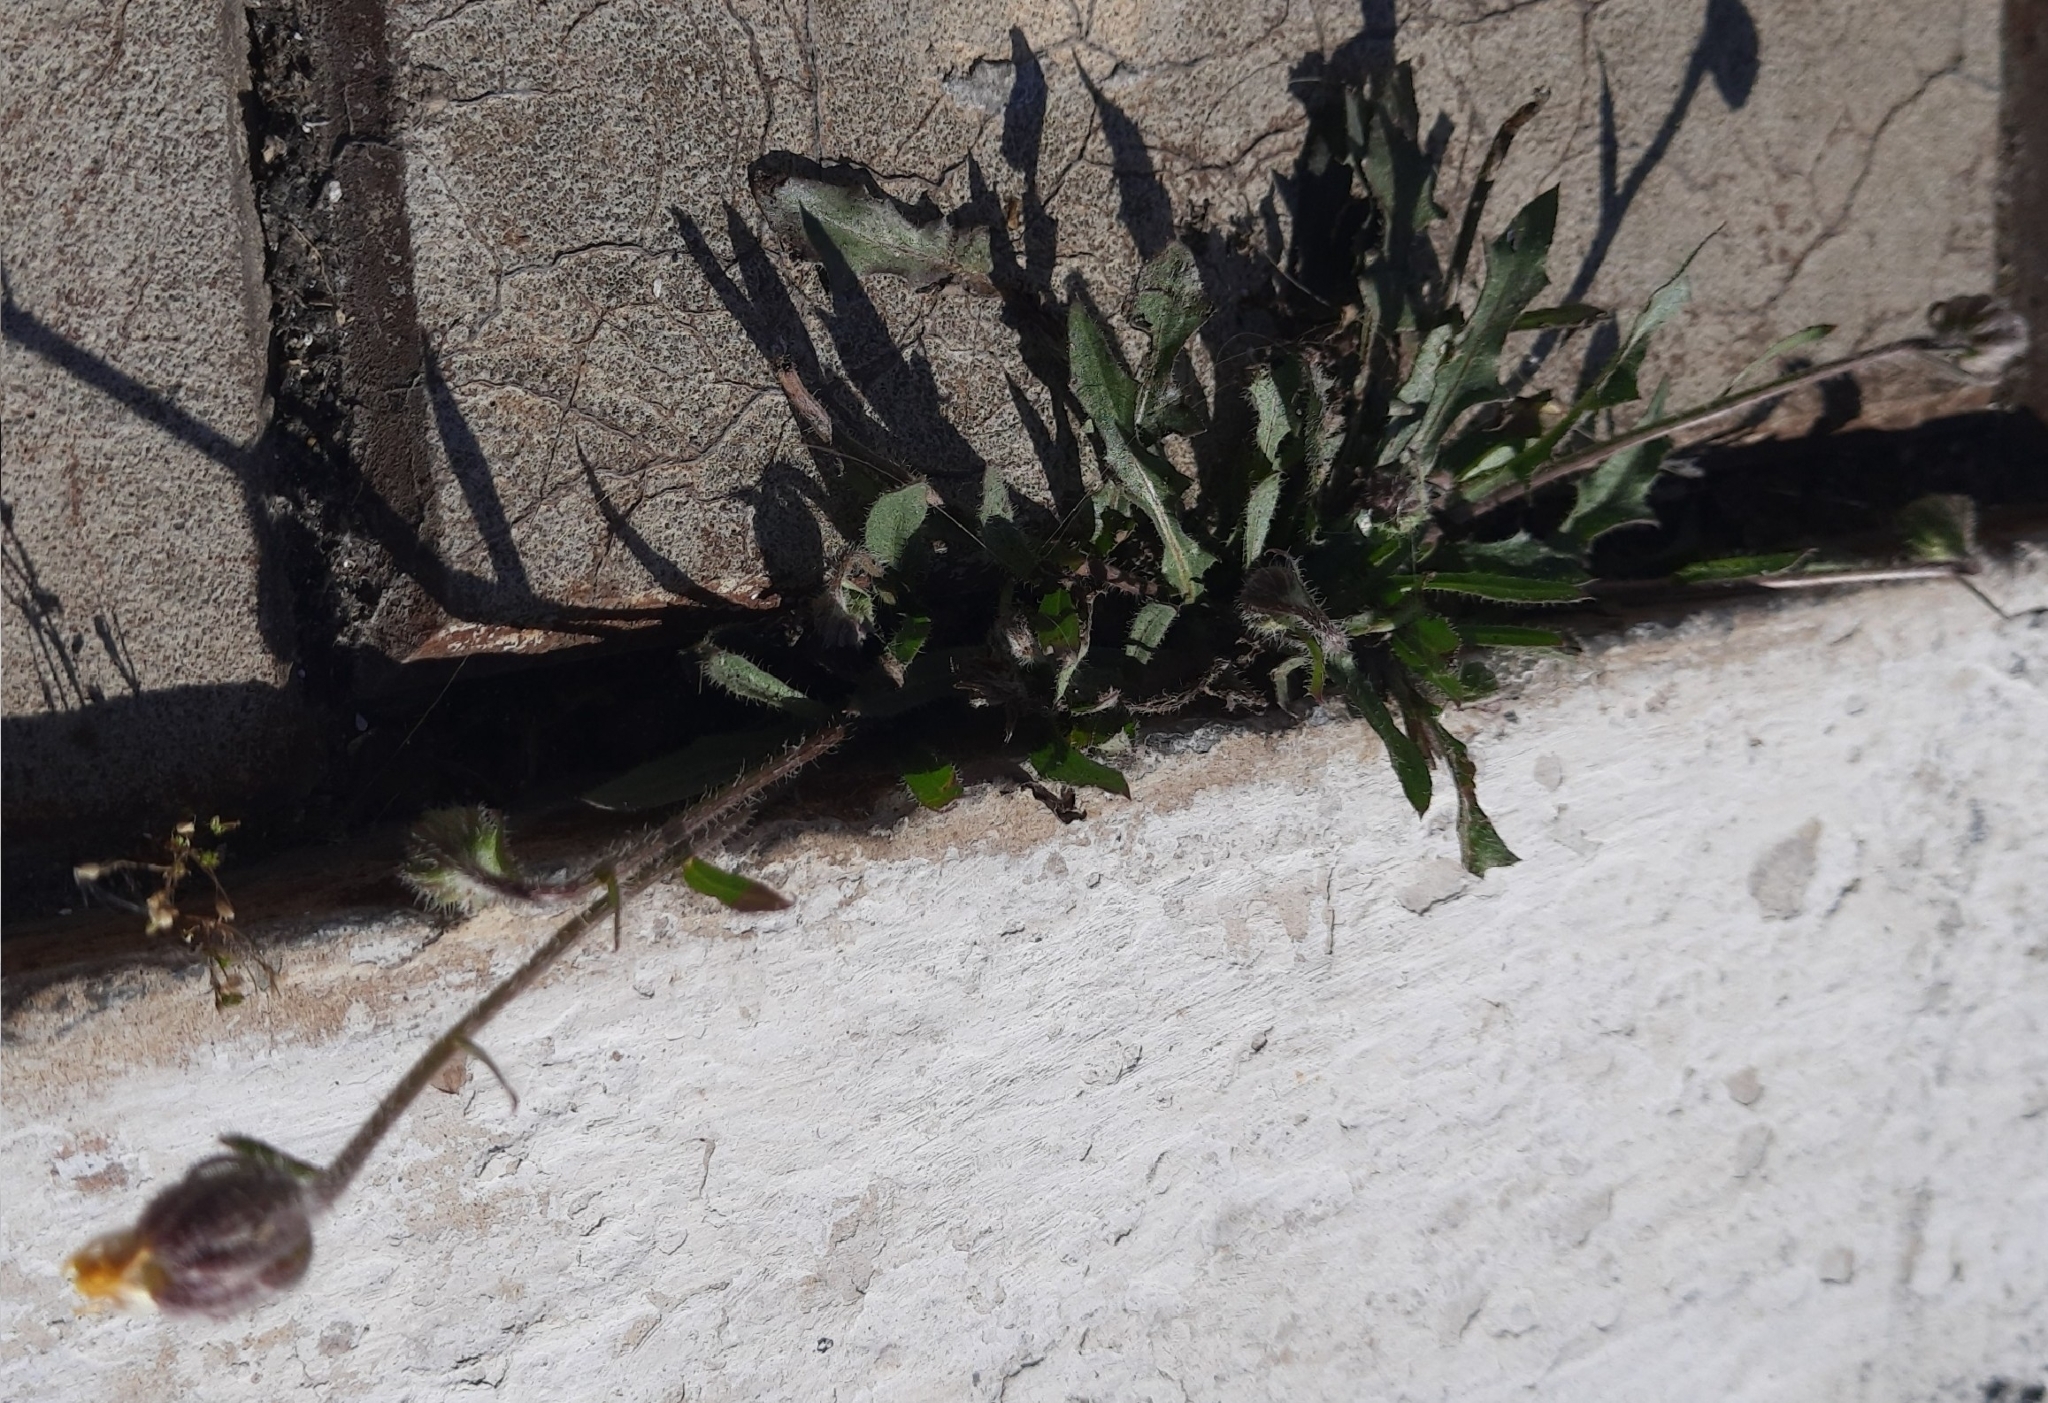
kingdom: Plantae
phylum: Tracheophyta
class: Magnoliopsida
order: Asterales
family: Asteraceae
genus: Crepis
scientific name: Crepis foetida
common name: Stinking hawk's-beard
